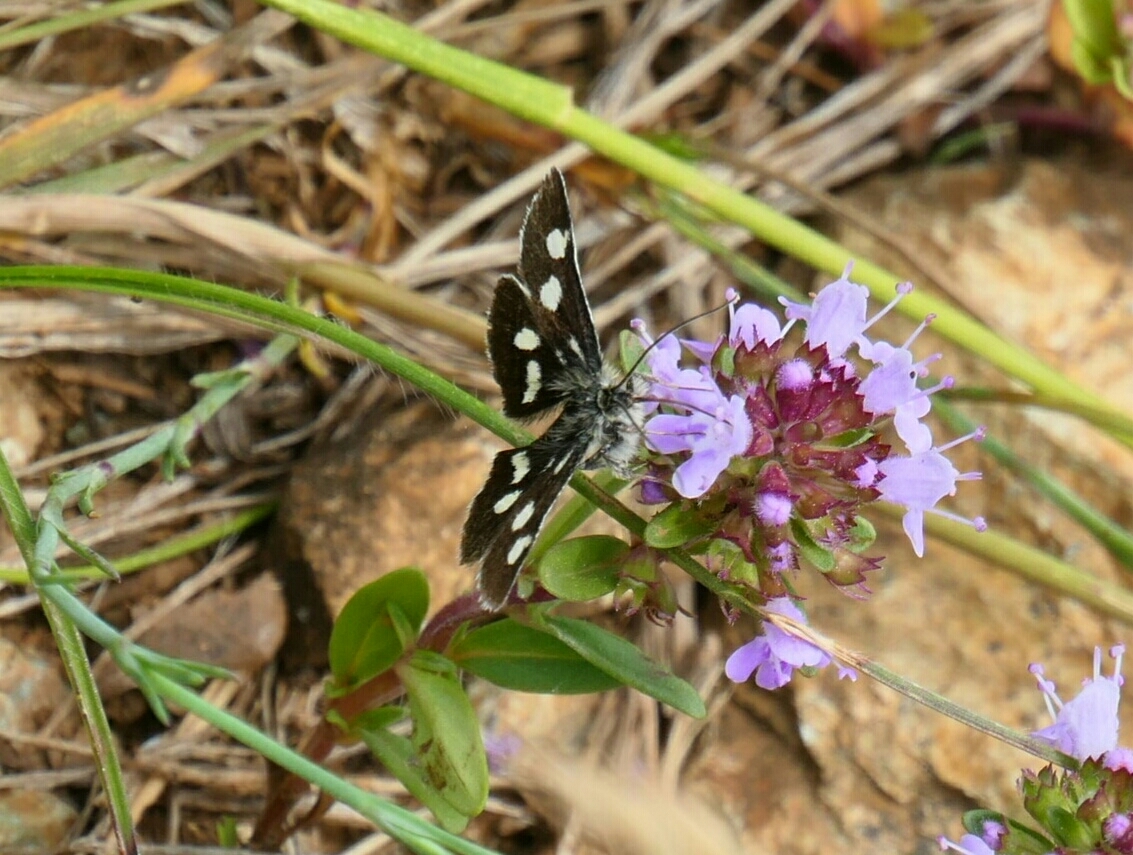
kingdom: Animalia
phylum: Arthropoda
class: Insecta
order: Lepidoptera
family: Crambidae
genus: Eurrhypis
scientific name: Eurrhypis pollinalis
